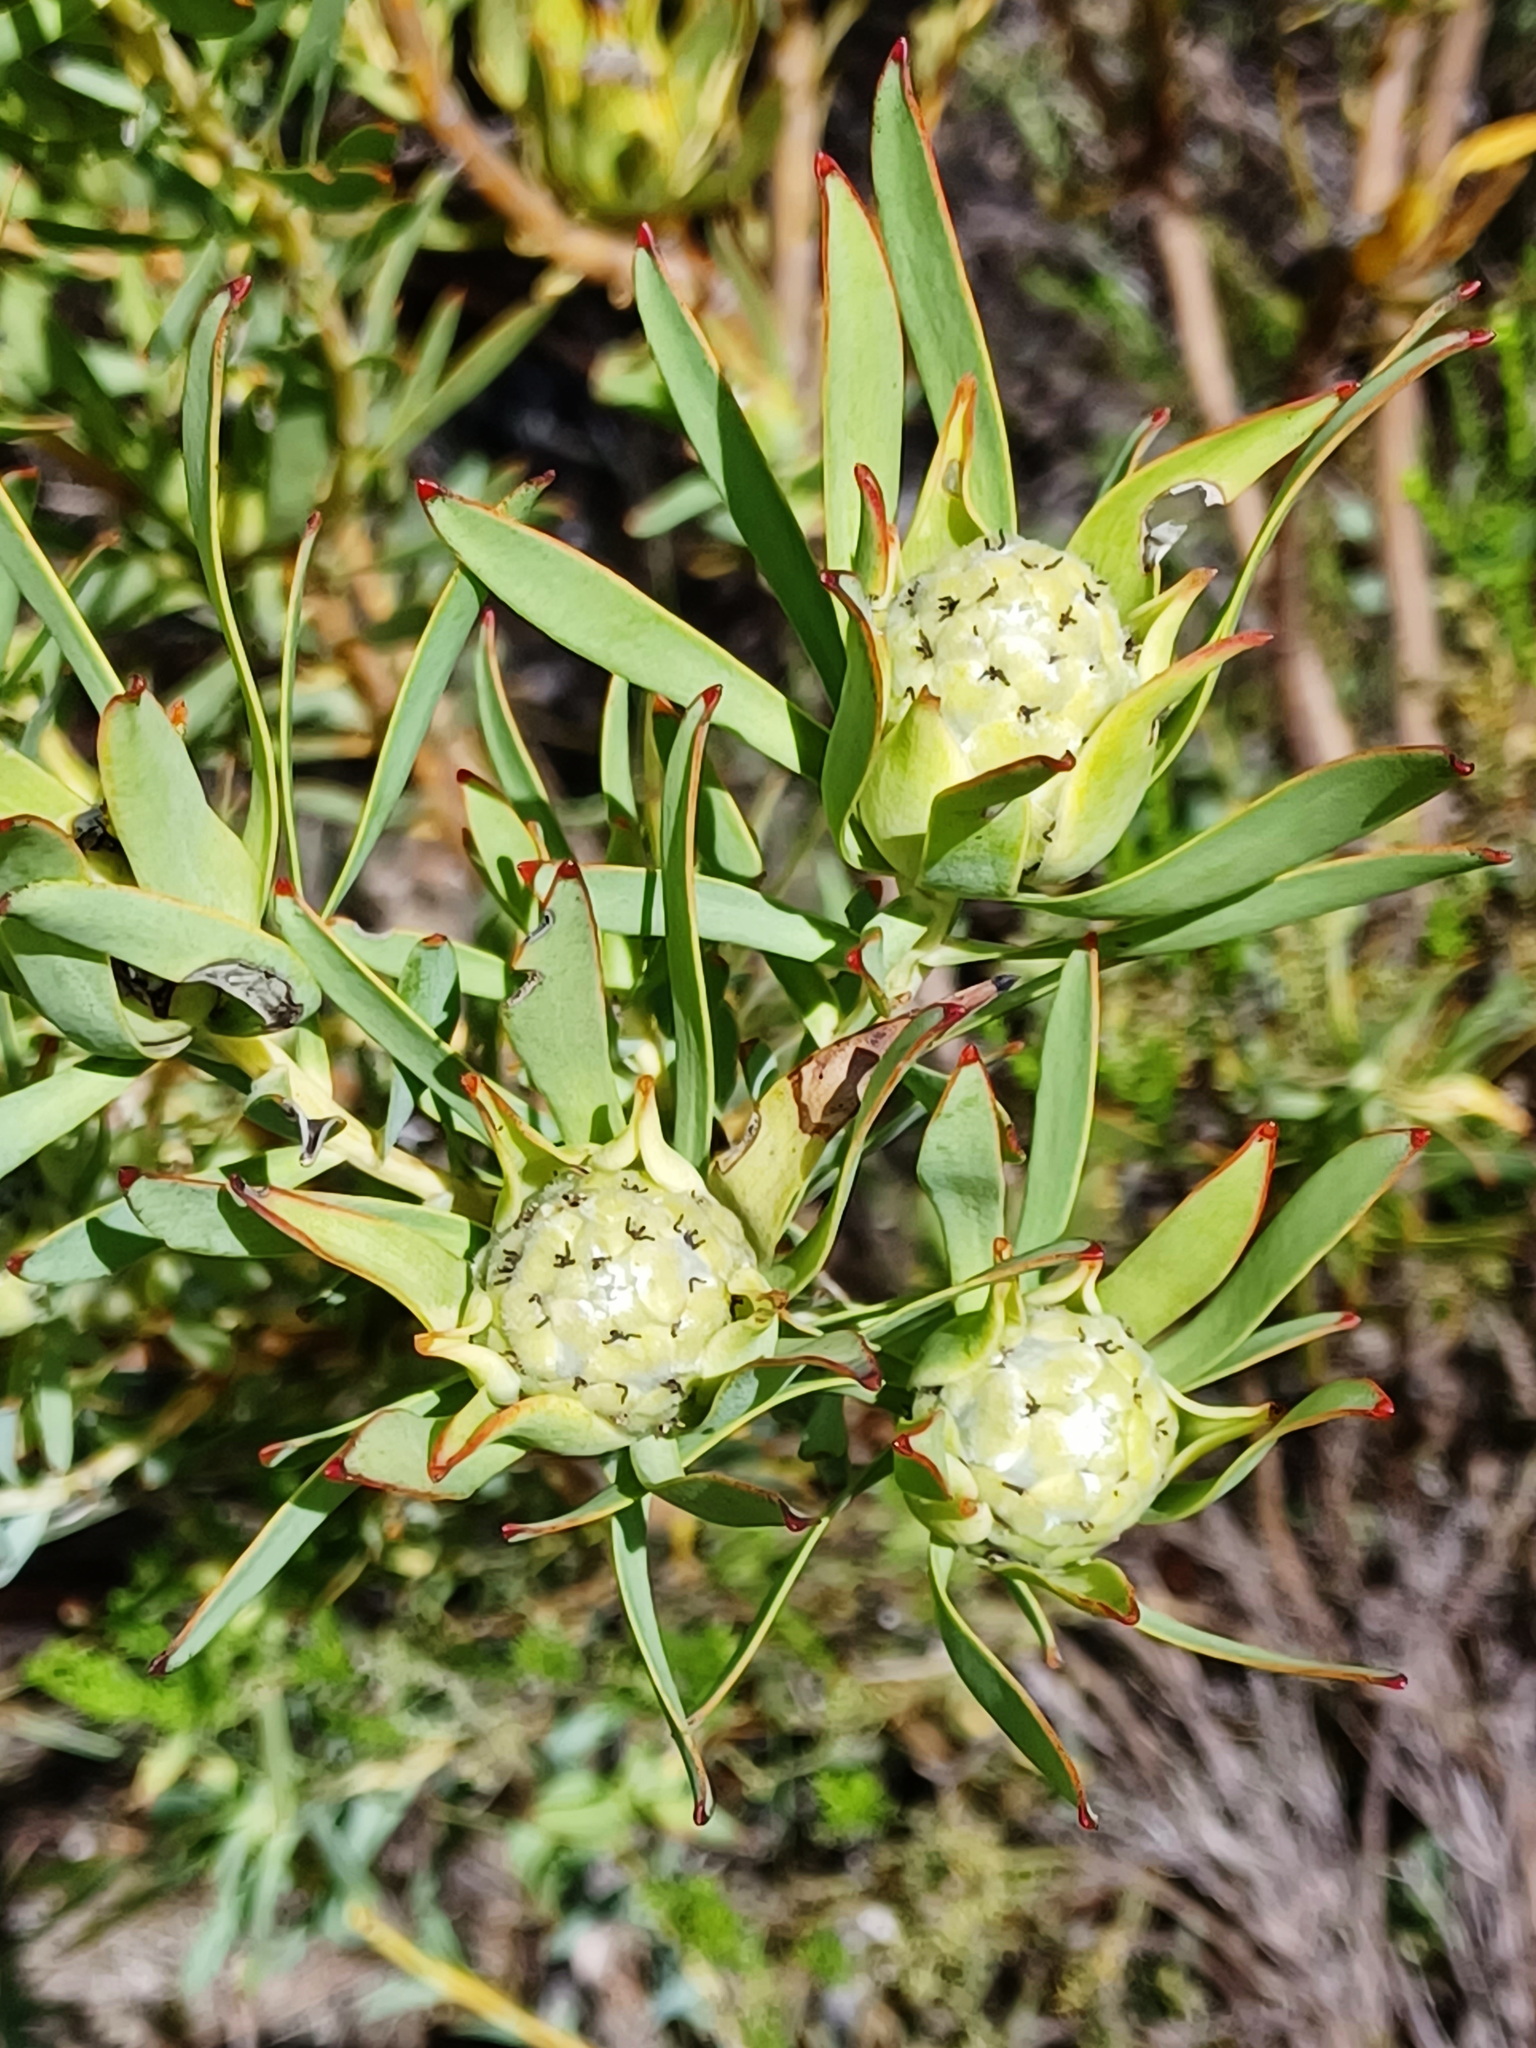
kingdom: Plantae
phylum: Tracheophyta
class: Magnoliopsida
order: Proteales
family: Proteaceae
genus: Leucadendron
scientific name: Leucadendron salignum
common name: Common sunshine conebush
